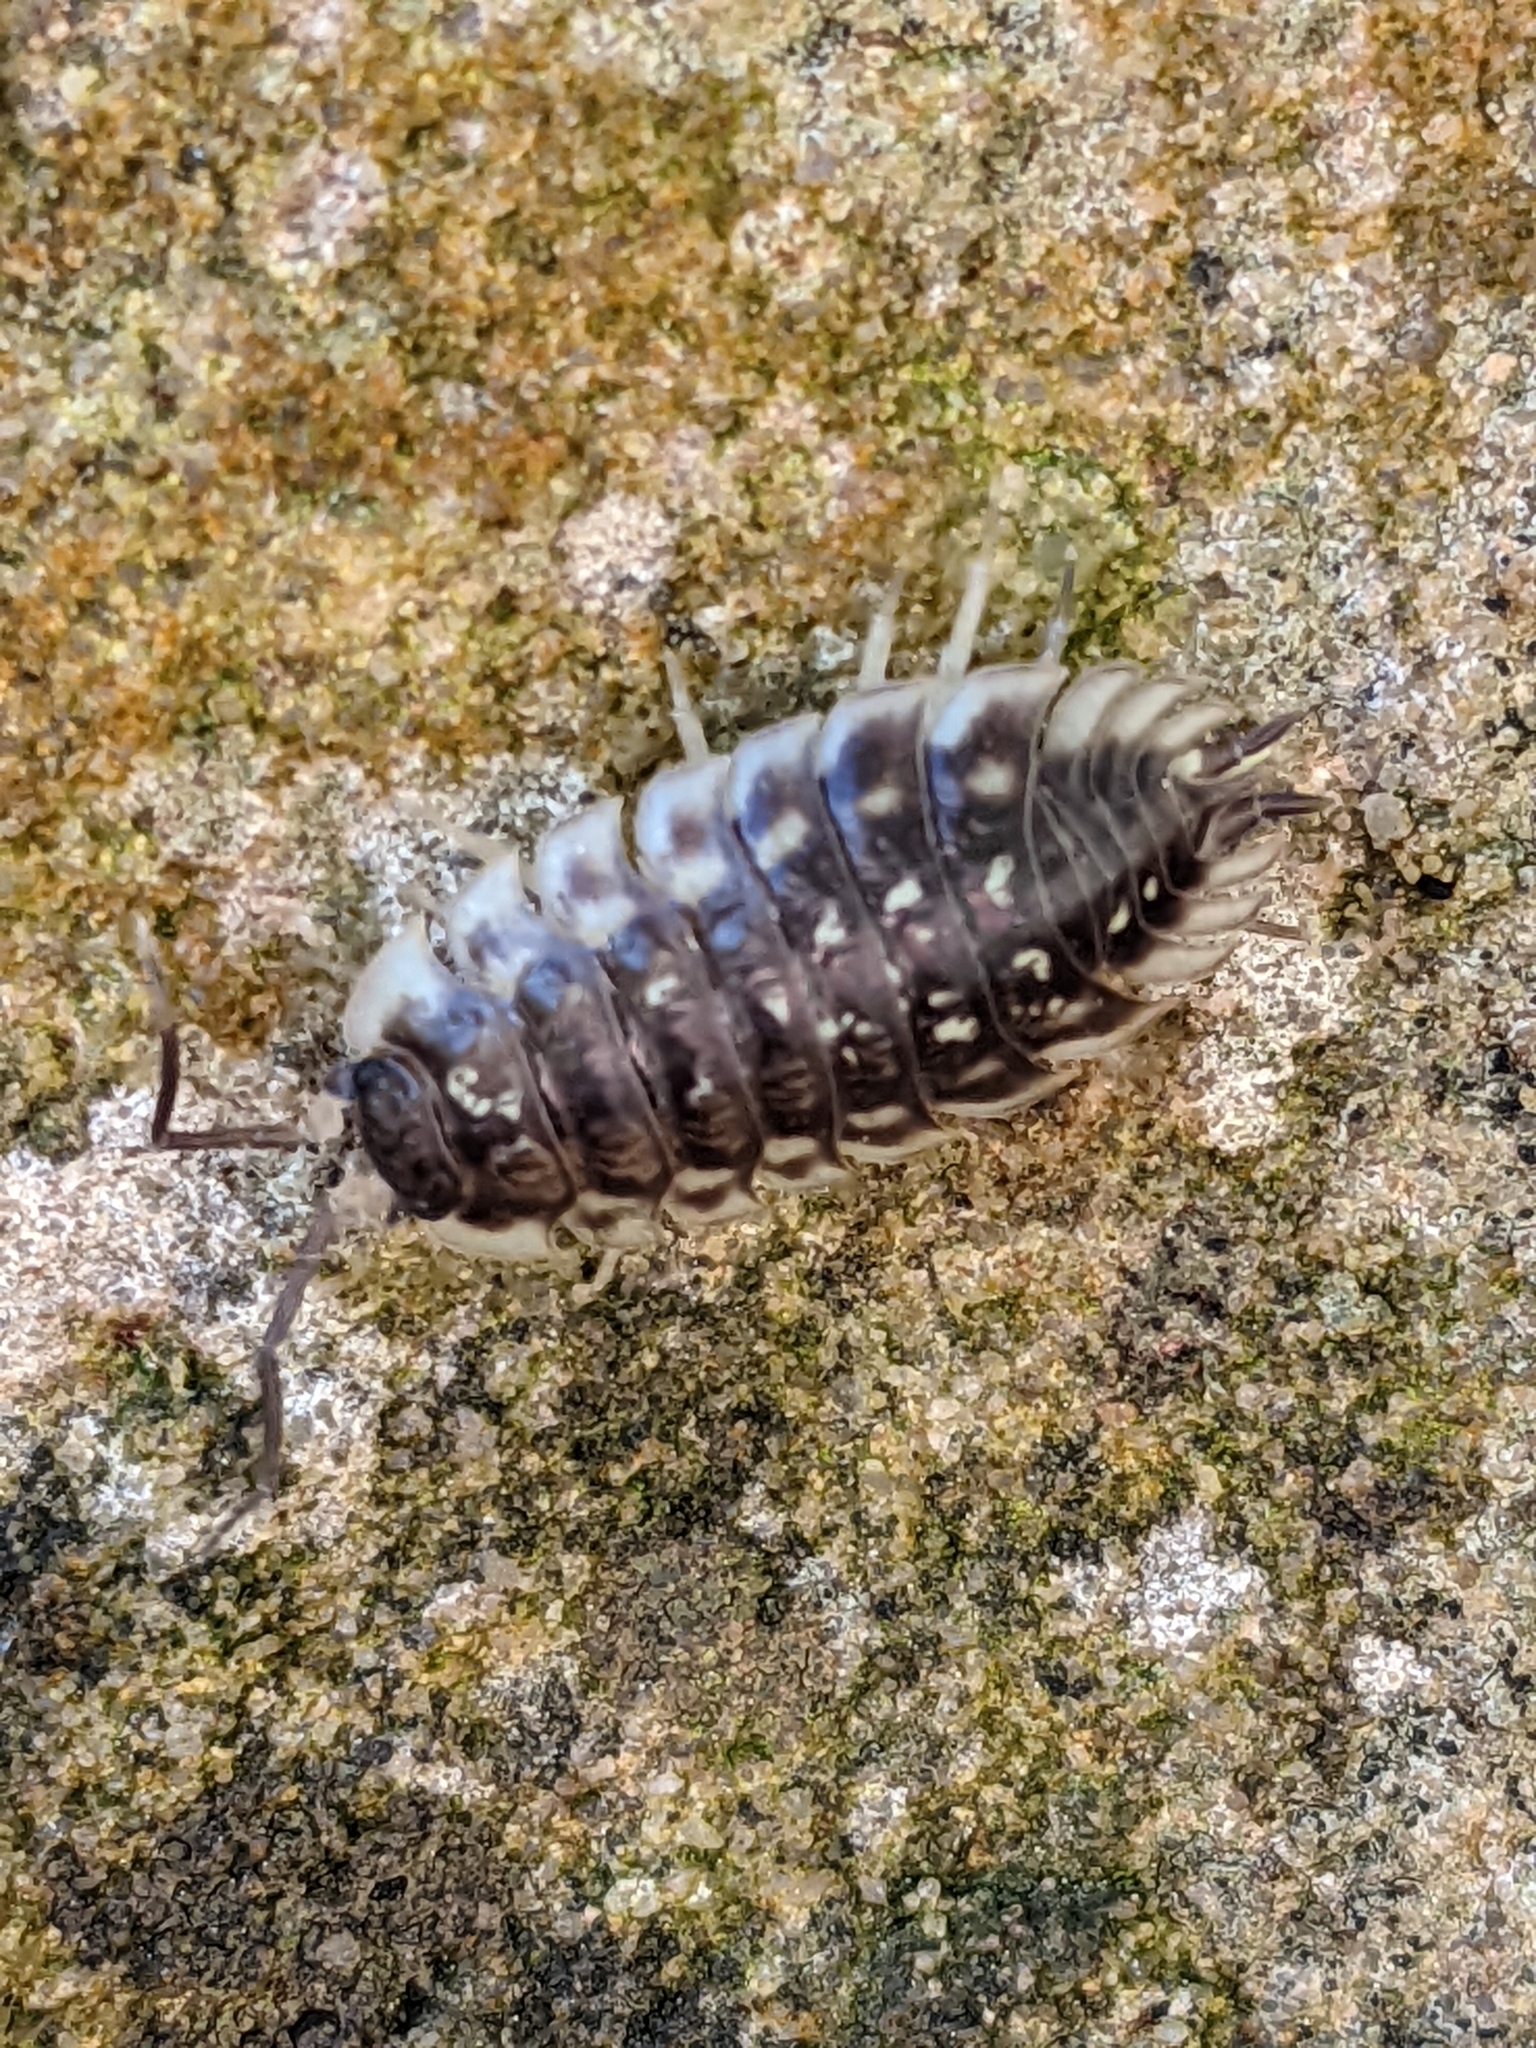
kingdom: Animalia
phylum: Arthropoda
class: Malacostraca
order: Isopoda
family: Oniscidae
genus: Oniscus
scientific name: Oniscus asellus
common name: Common shiny woodlouse
